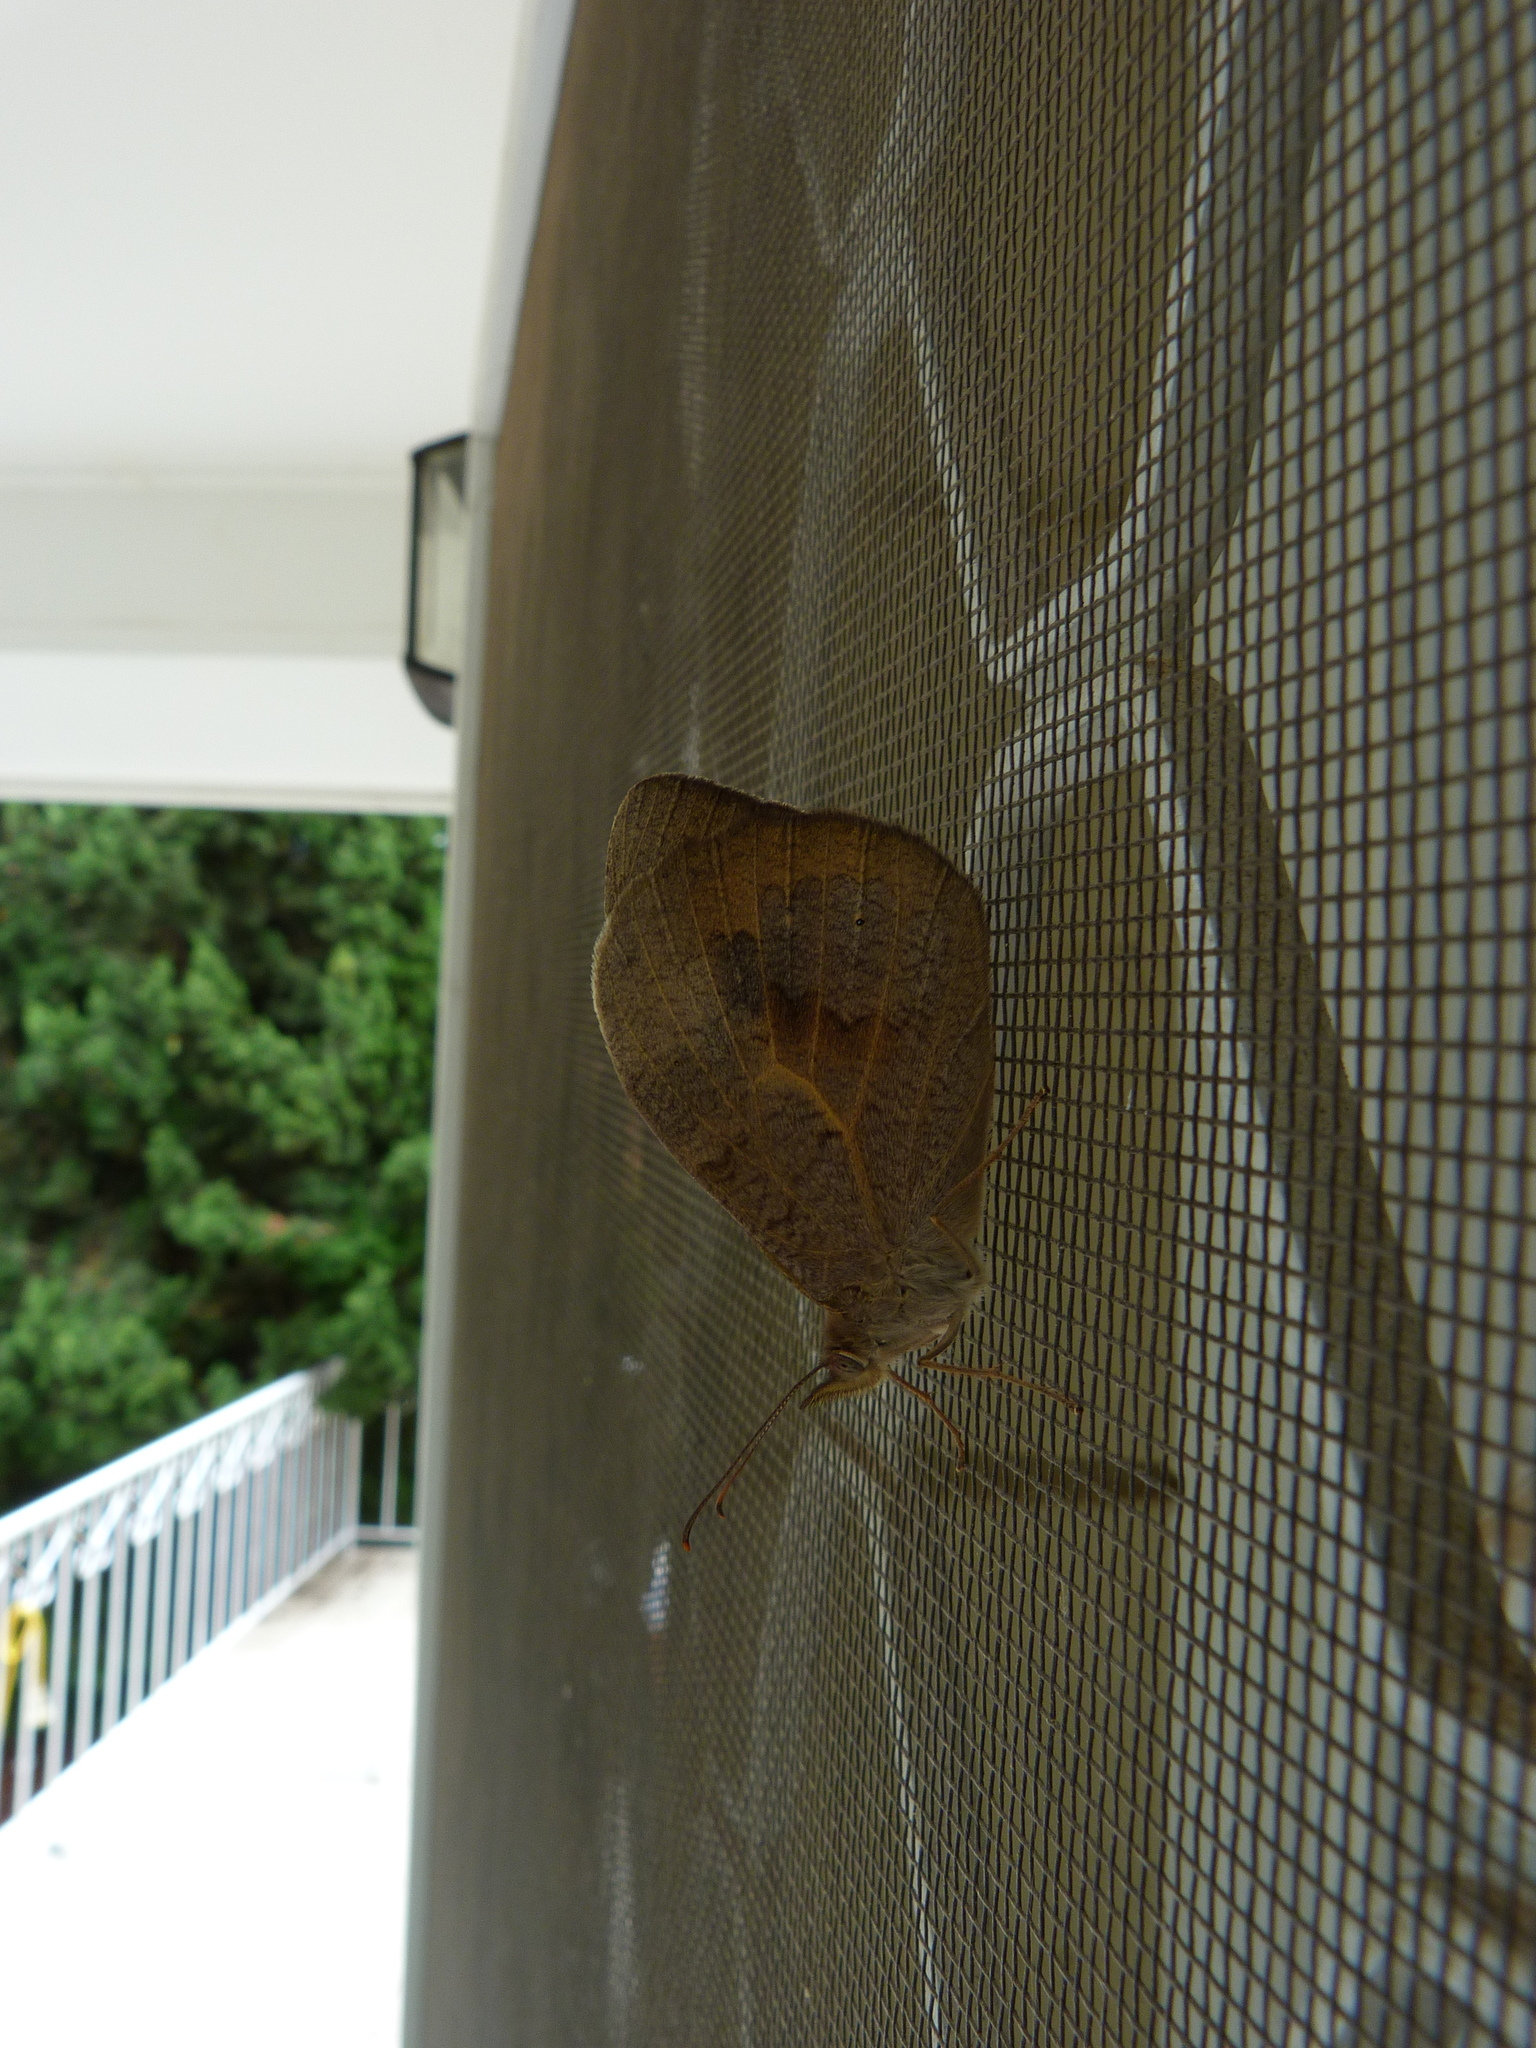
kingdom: Animalia
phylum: Arthropoda
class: Insecta
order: Lepidoptera
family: Nymphalidae
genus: Heteronympha
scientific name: Heteronympha merope
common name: Common brown
